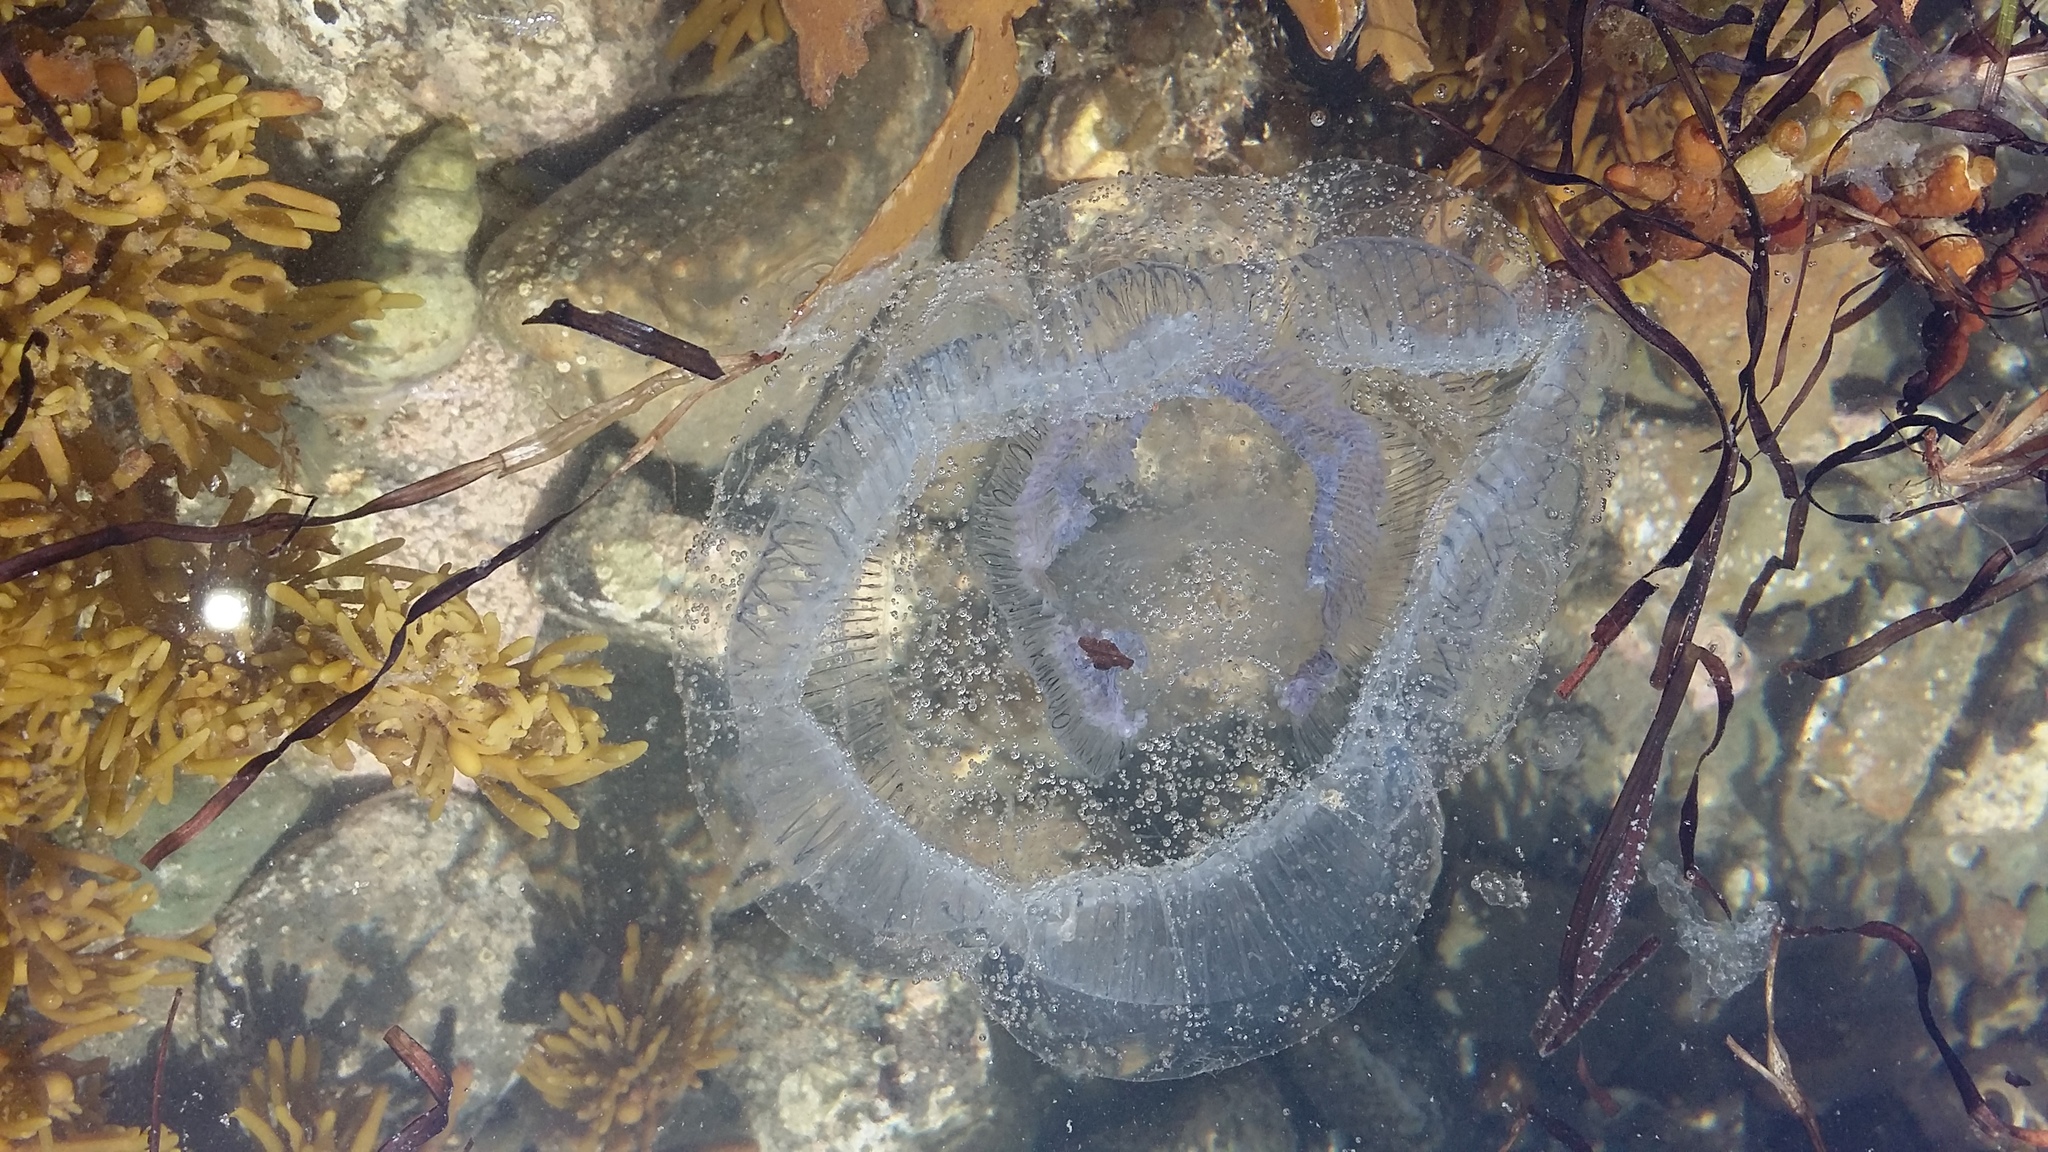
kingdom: Animalia
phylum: Cnidaria
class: Hydrozoa
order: Leptothecata
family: Aequoreidae
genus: Aequorea
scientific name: Aequorea forskalea
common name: Many-ribbed jellyfish
